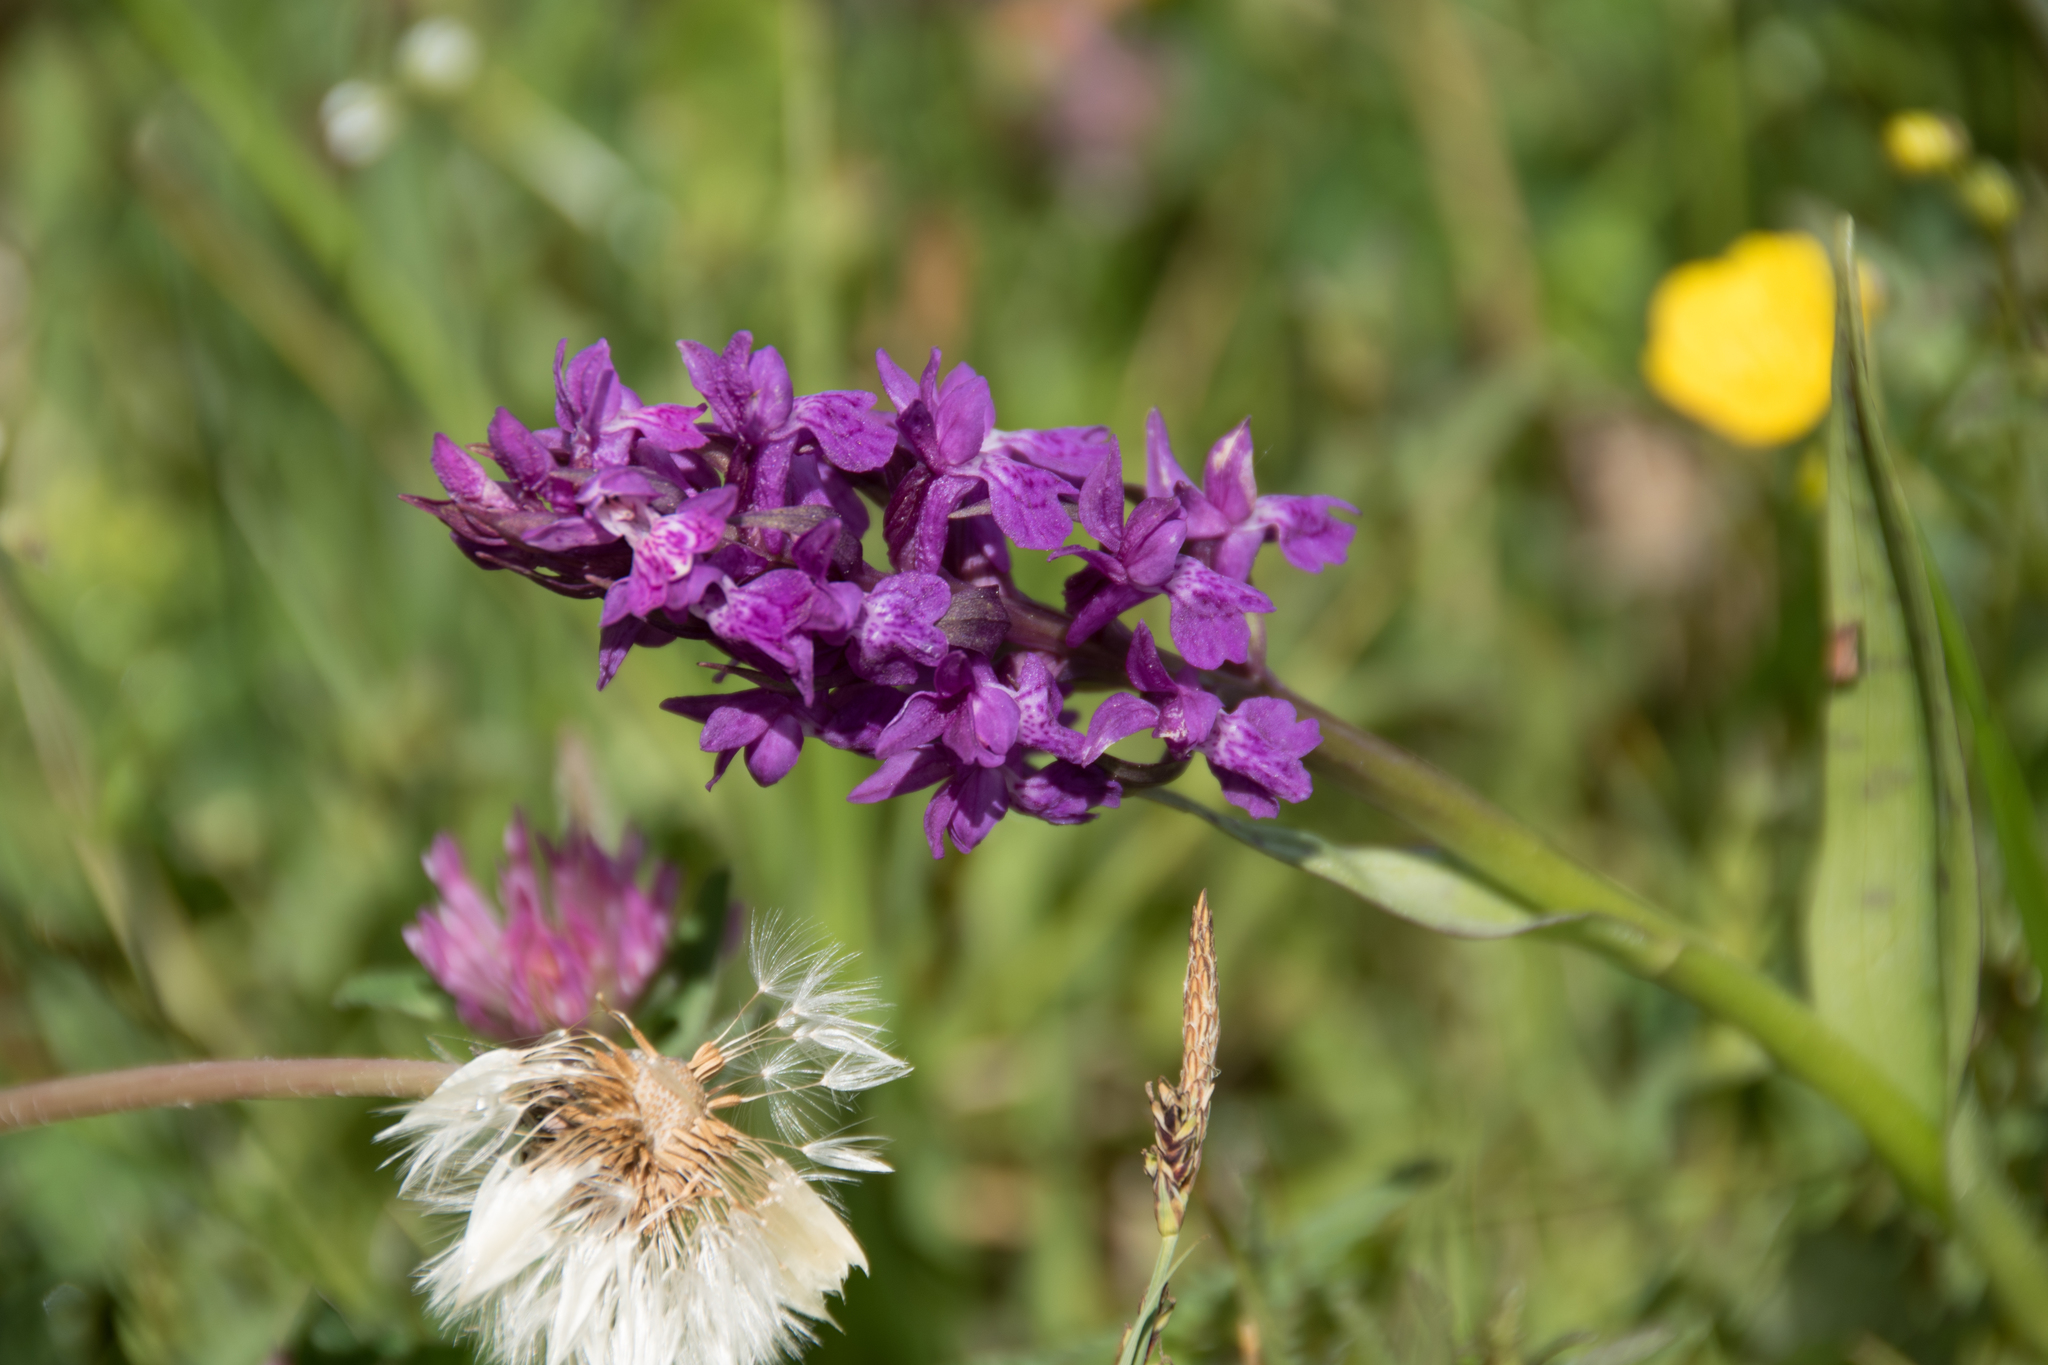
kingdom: Plantae
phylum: Tracheophyta
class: Liliopsida
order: Asparagales
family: Orchidaceae
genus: Dactylorhiza
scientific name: Dactylorhiza majalis
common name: Marsh orchid
